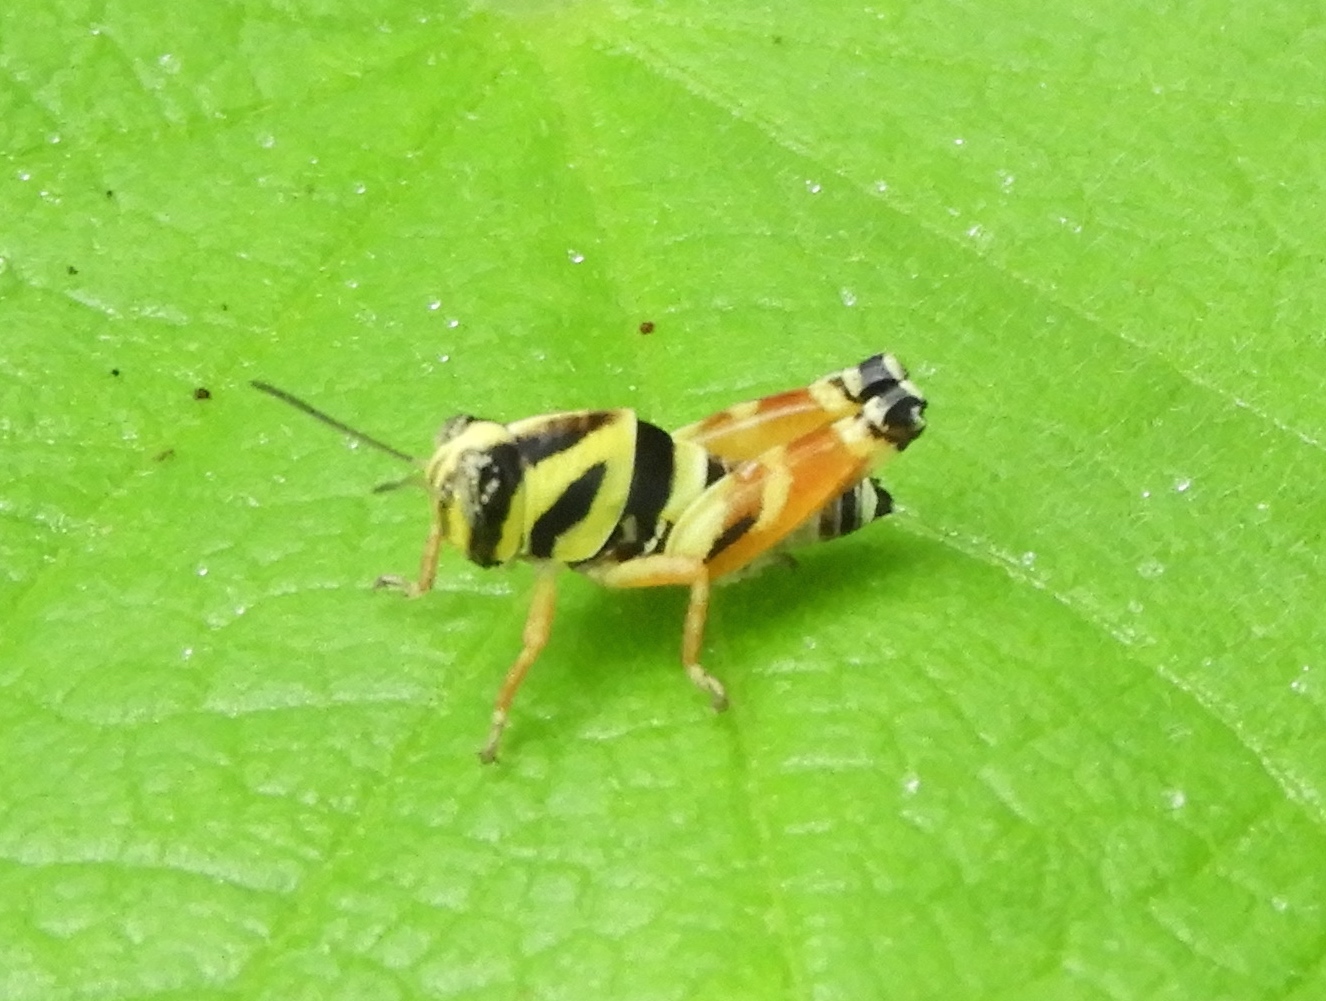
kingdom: Animalia
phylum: Arthropoda
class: Insecta
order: Orthoptera
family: Acrididae
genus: Aidemona
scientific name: Aidemona azteca
